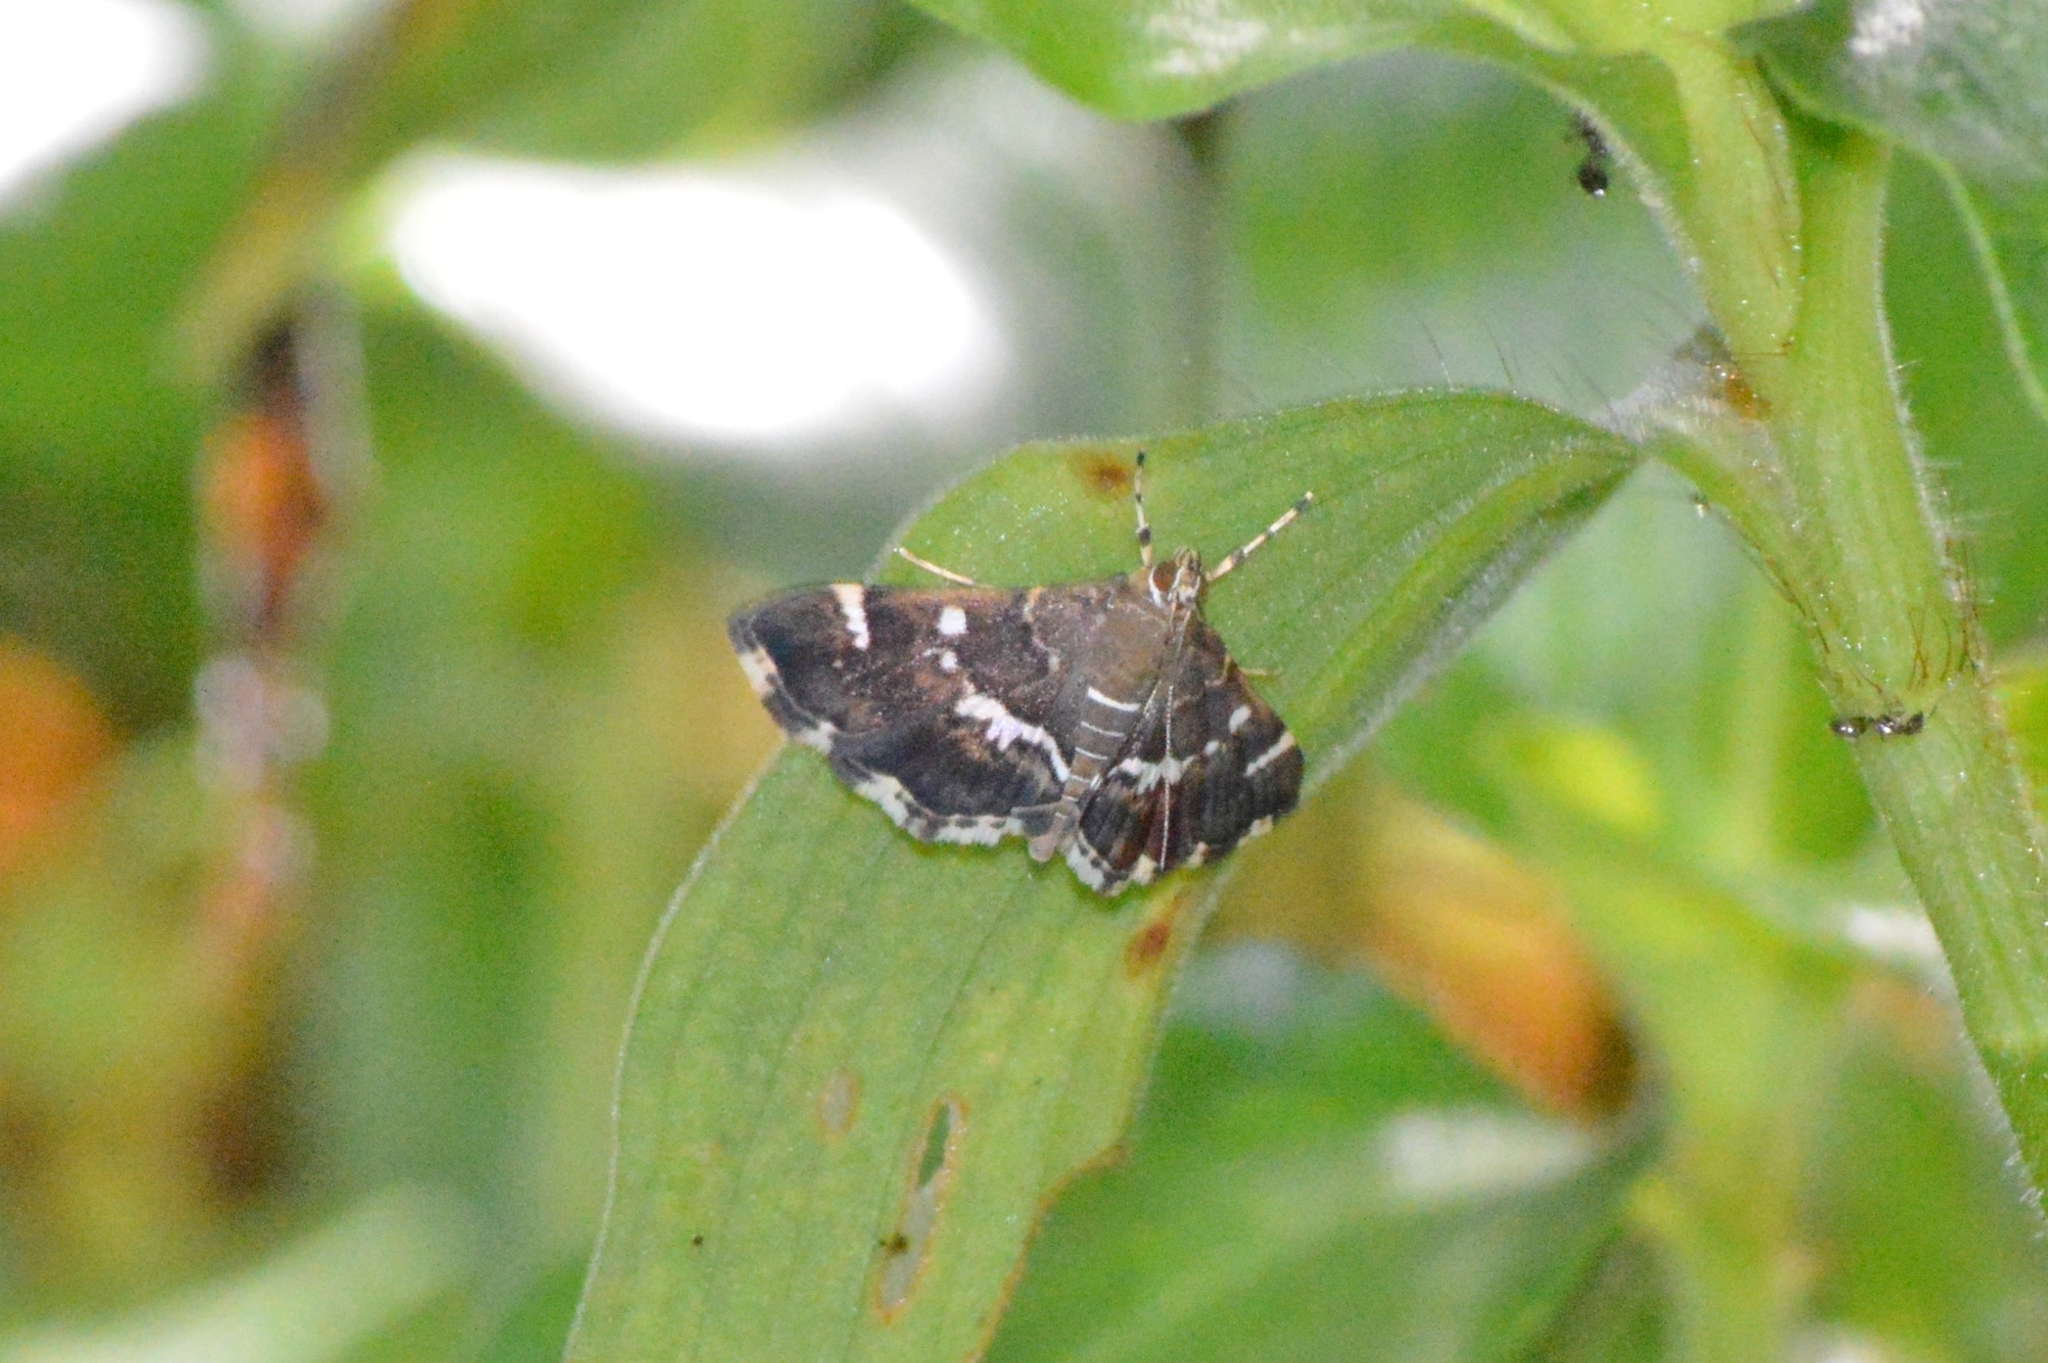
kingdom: Animalia
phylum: Arthropoda
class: Insecta
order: Lepidoptera
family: Crambidae
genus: Hymenia
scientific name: Hymenia perspectalis
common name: Spotted beet webworm
